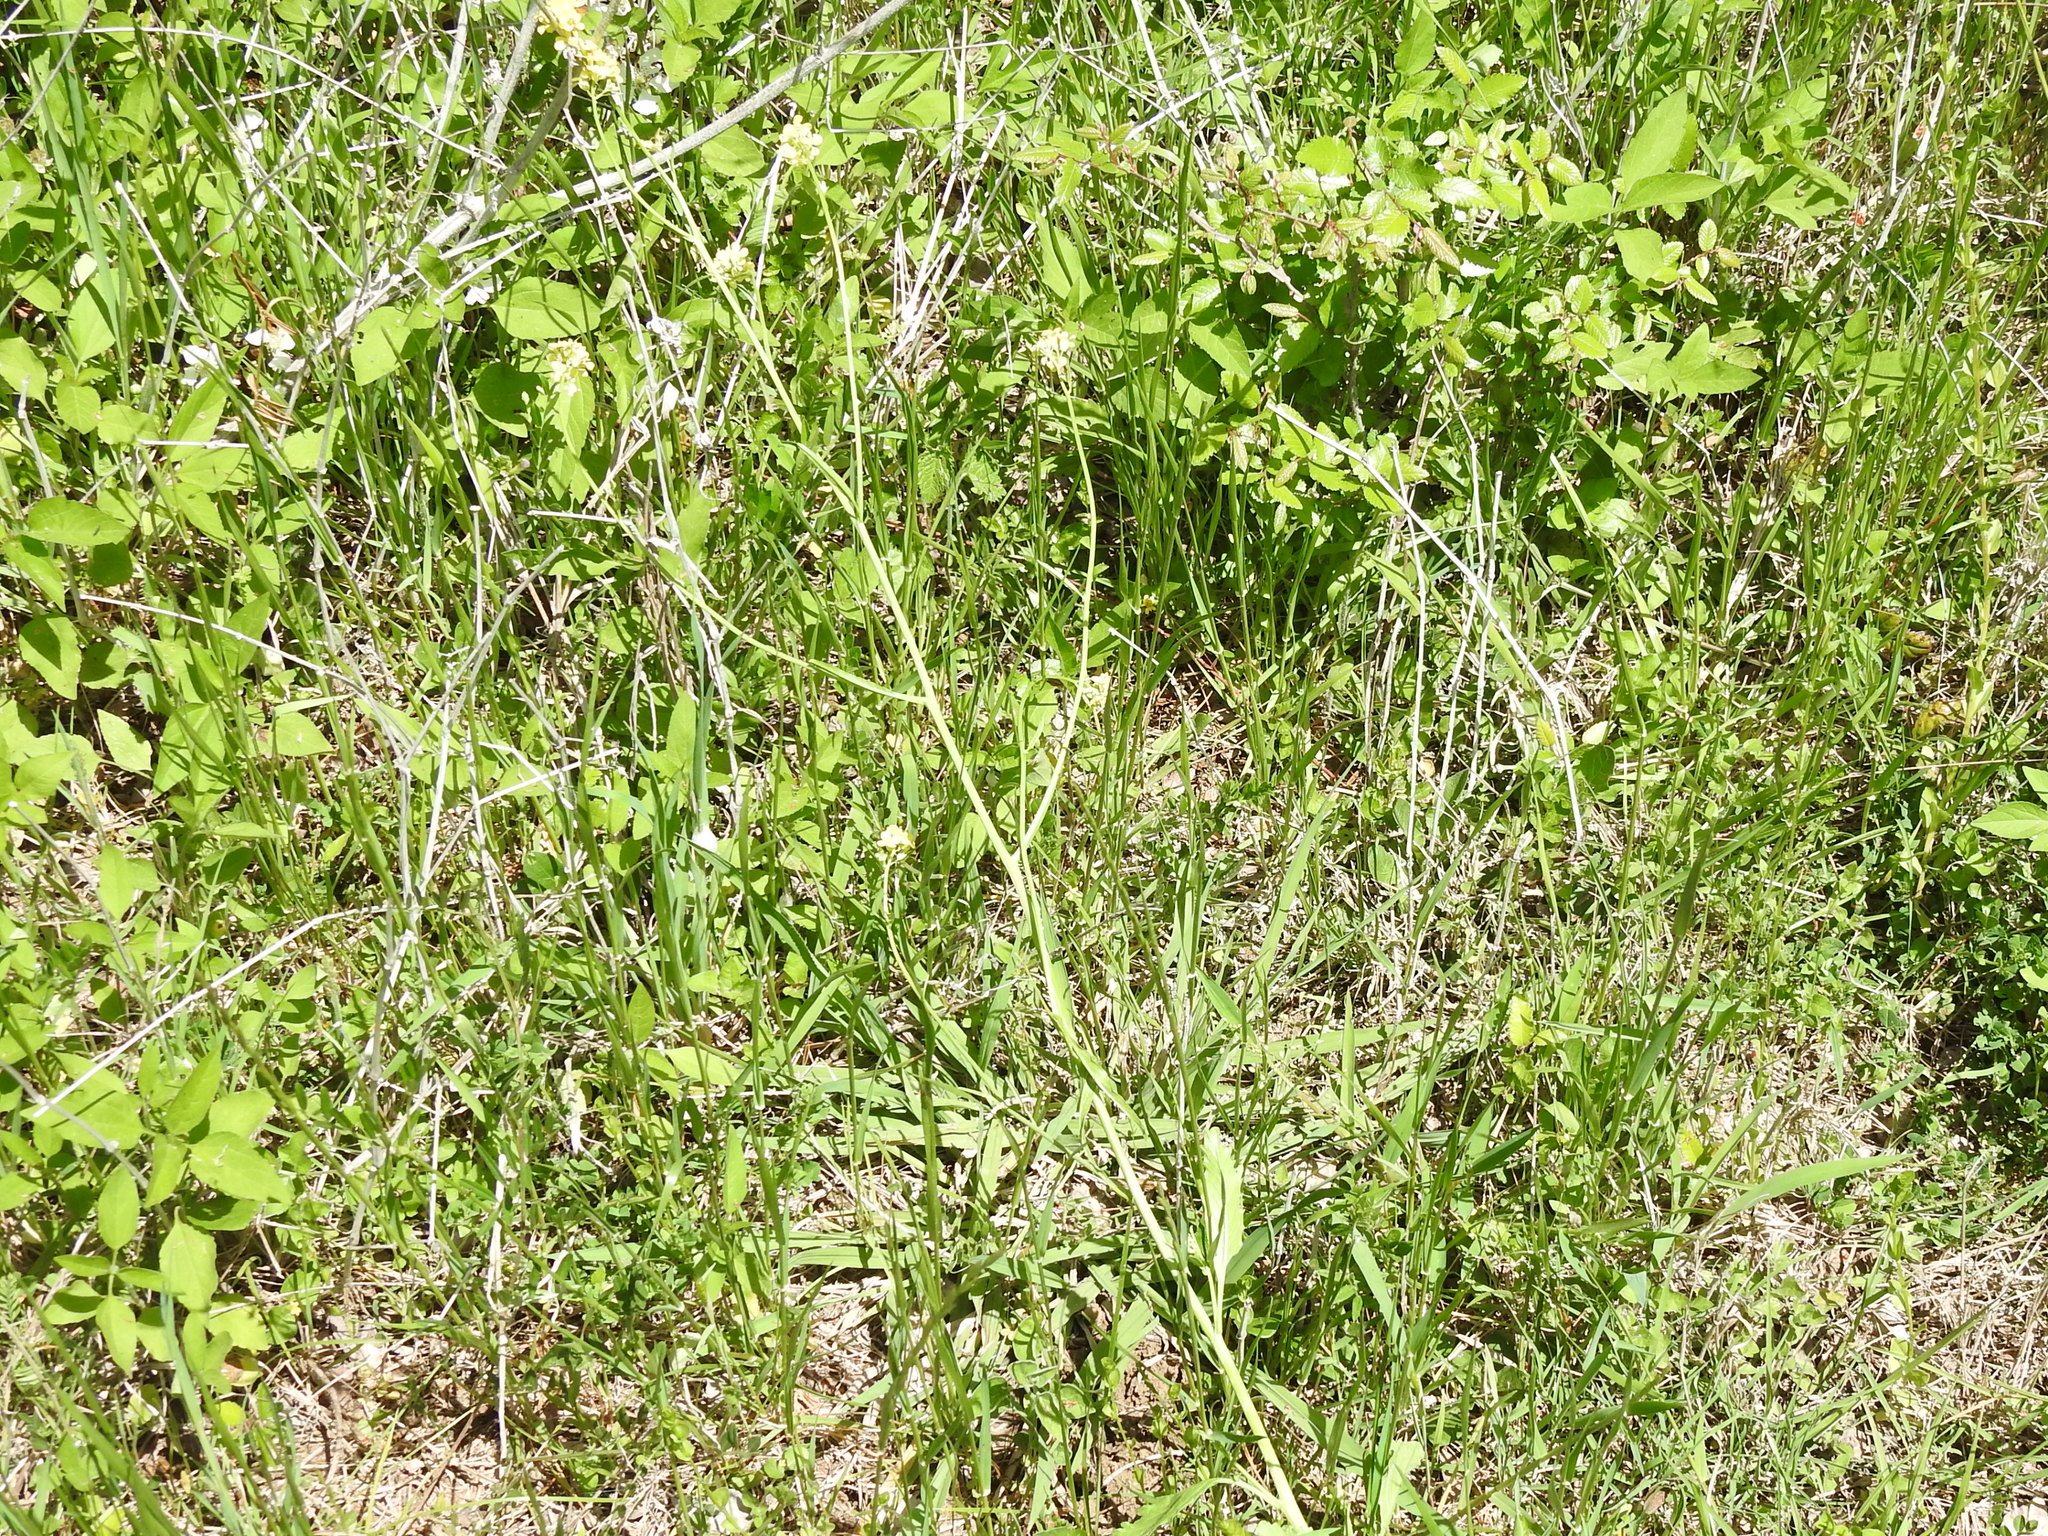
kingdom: Plantae
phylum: Tracheophyta
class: Magnoliopsida
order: Brassicales
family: Brassicaceae
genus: Rapistrum
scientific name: Rapistrum rugosum
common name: Annual bastardcabbage
